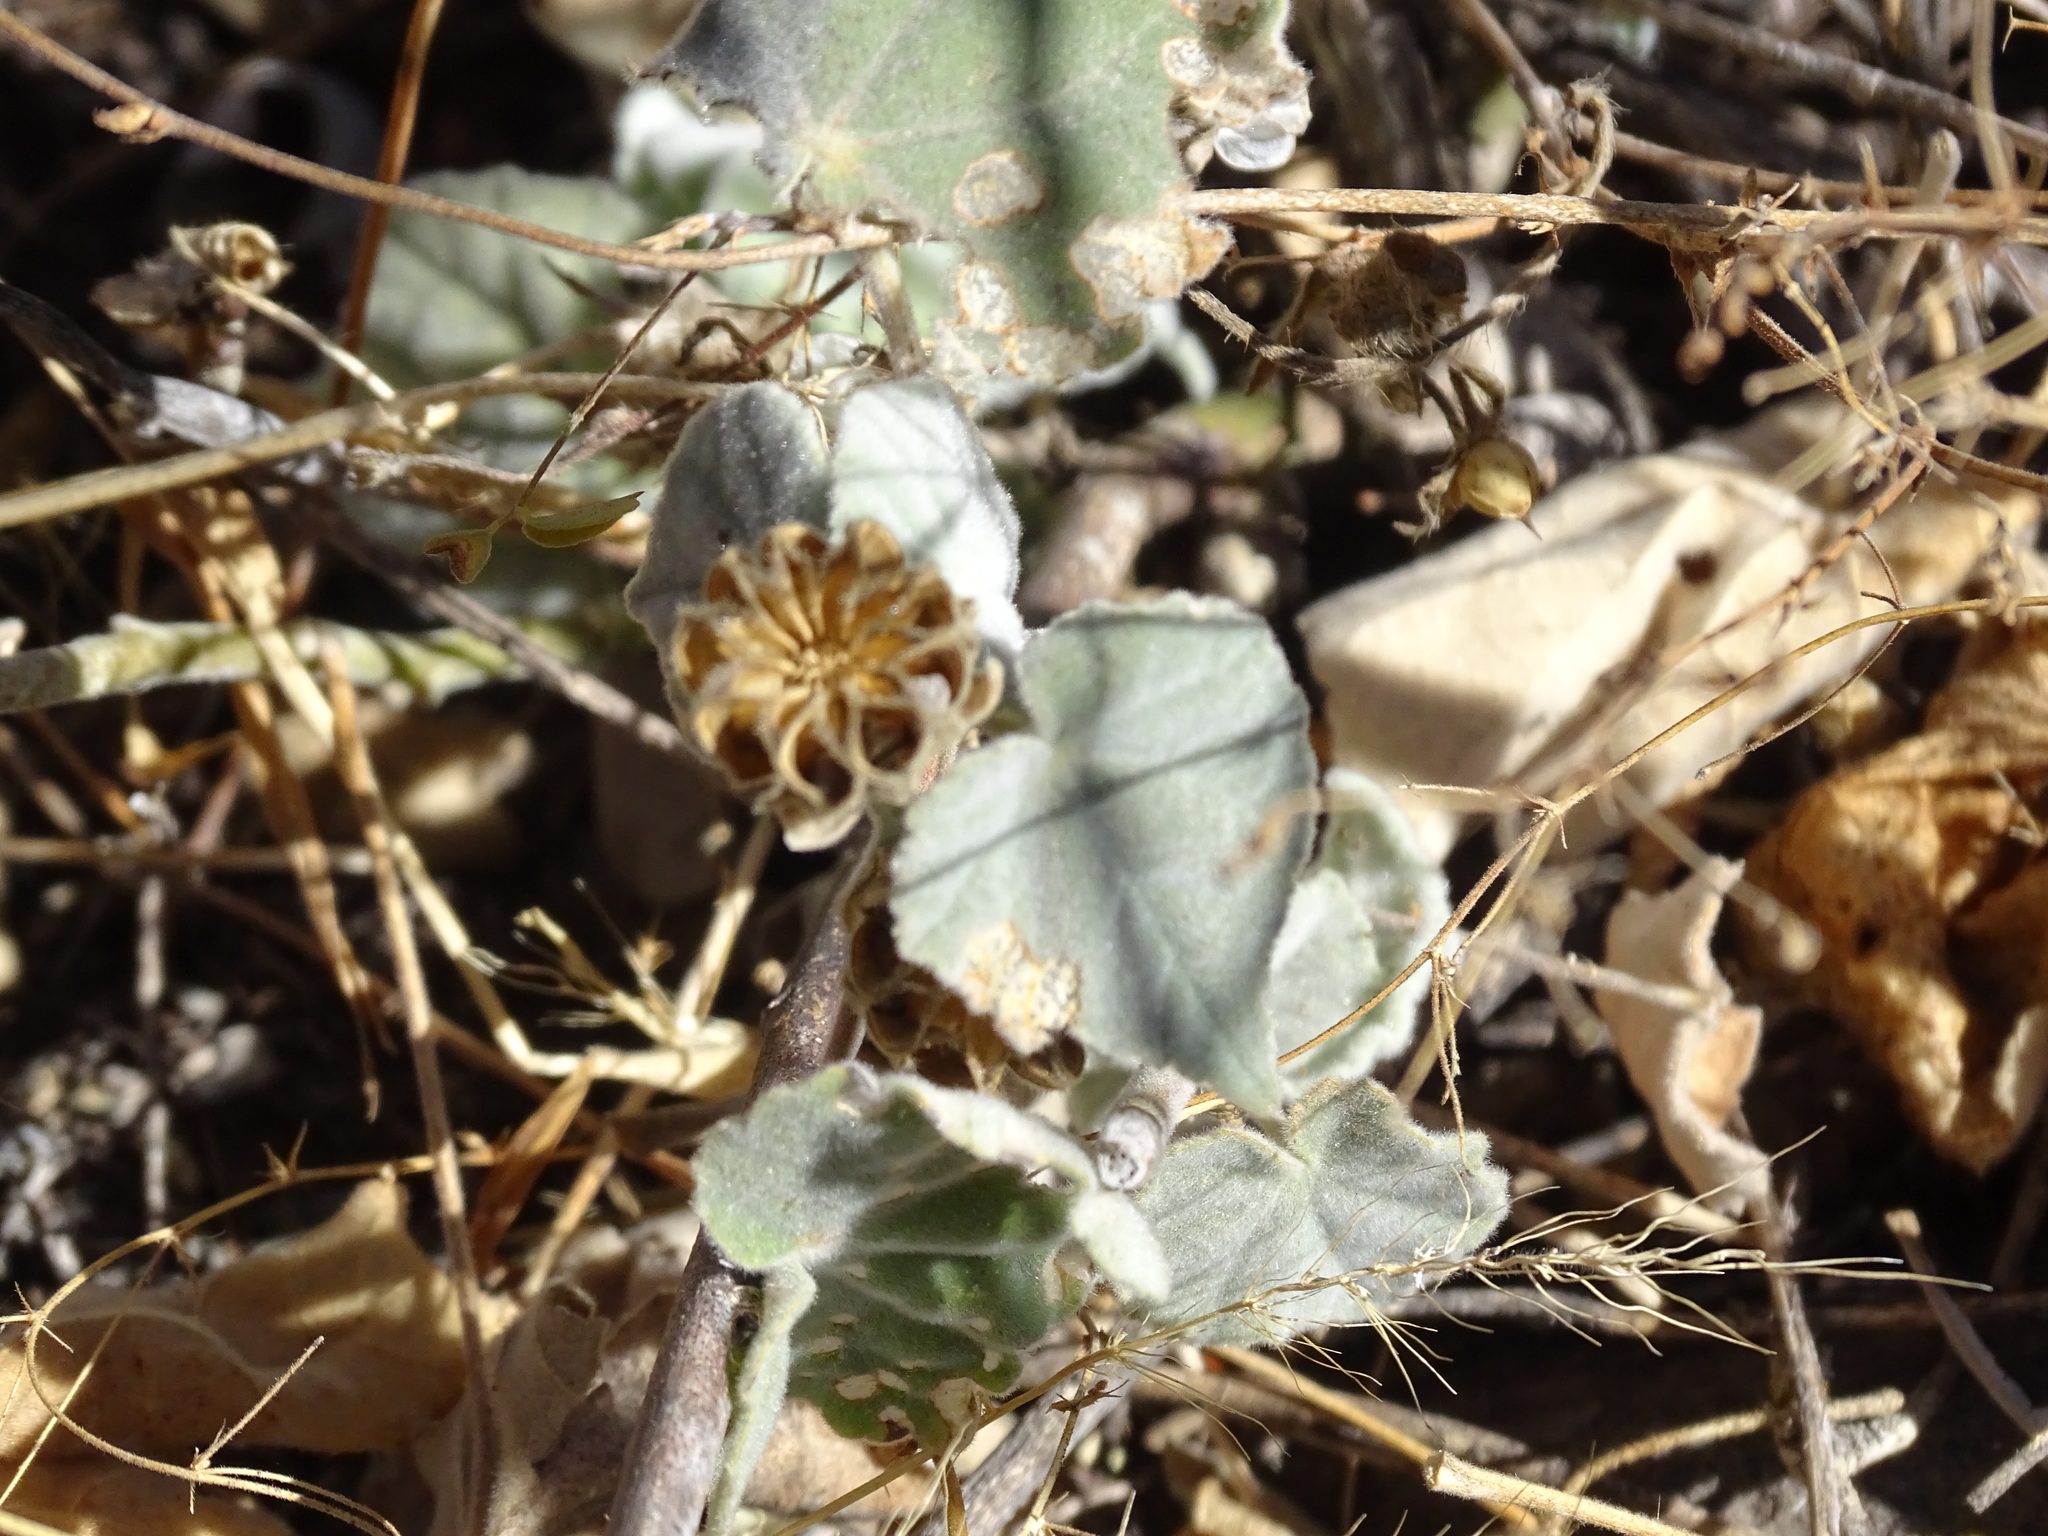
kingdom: Plantae
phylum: Tracheophyta
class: Magnoliopsida
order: Malvales
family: Malvaceae
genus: Abutilon
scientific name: Abutilon reventum
